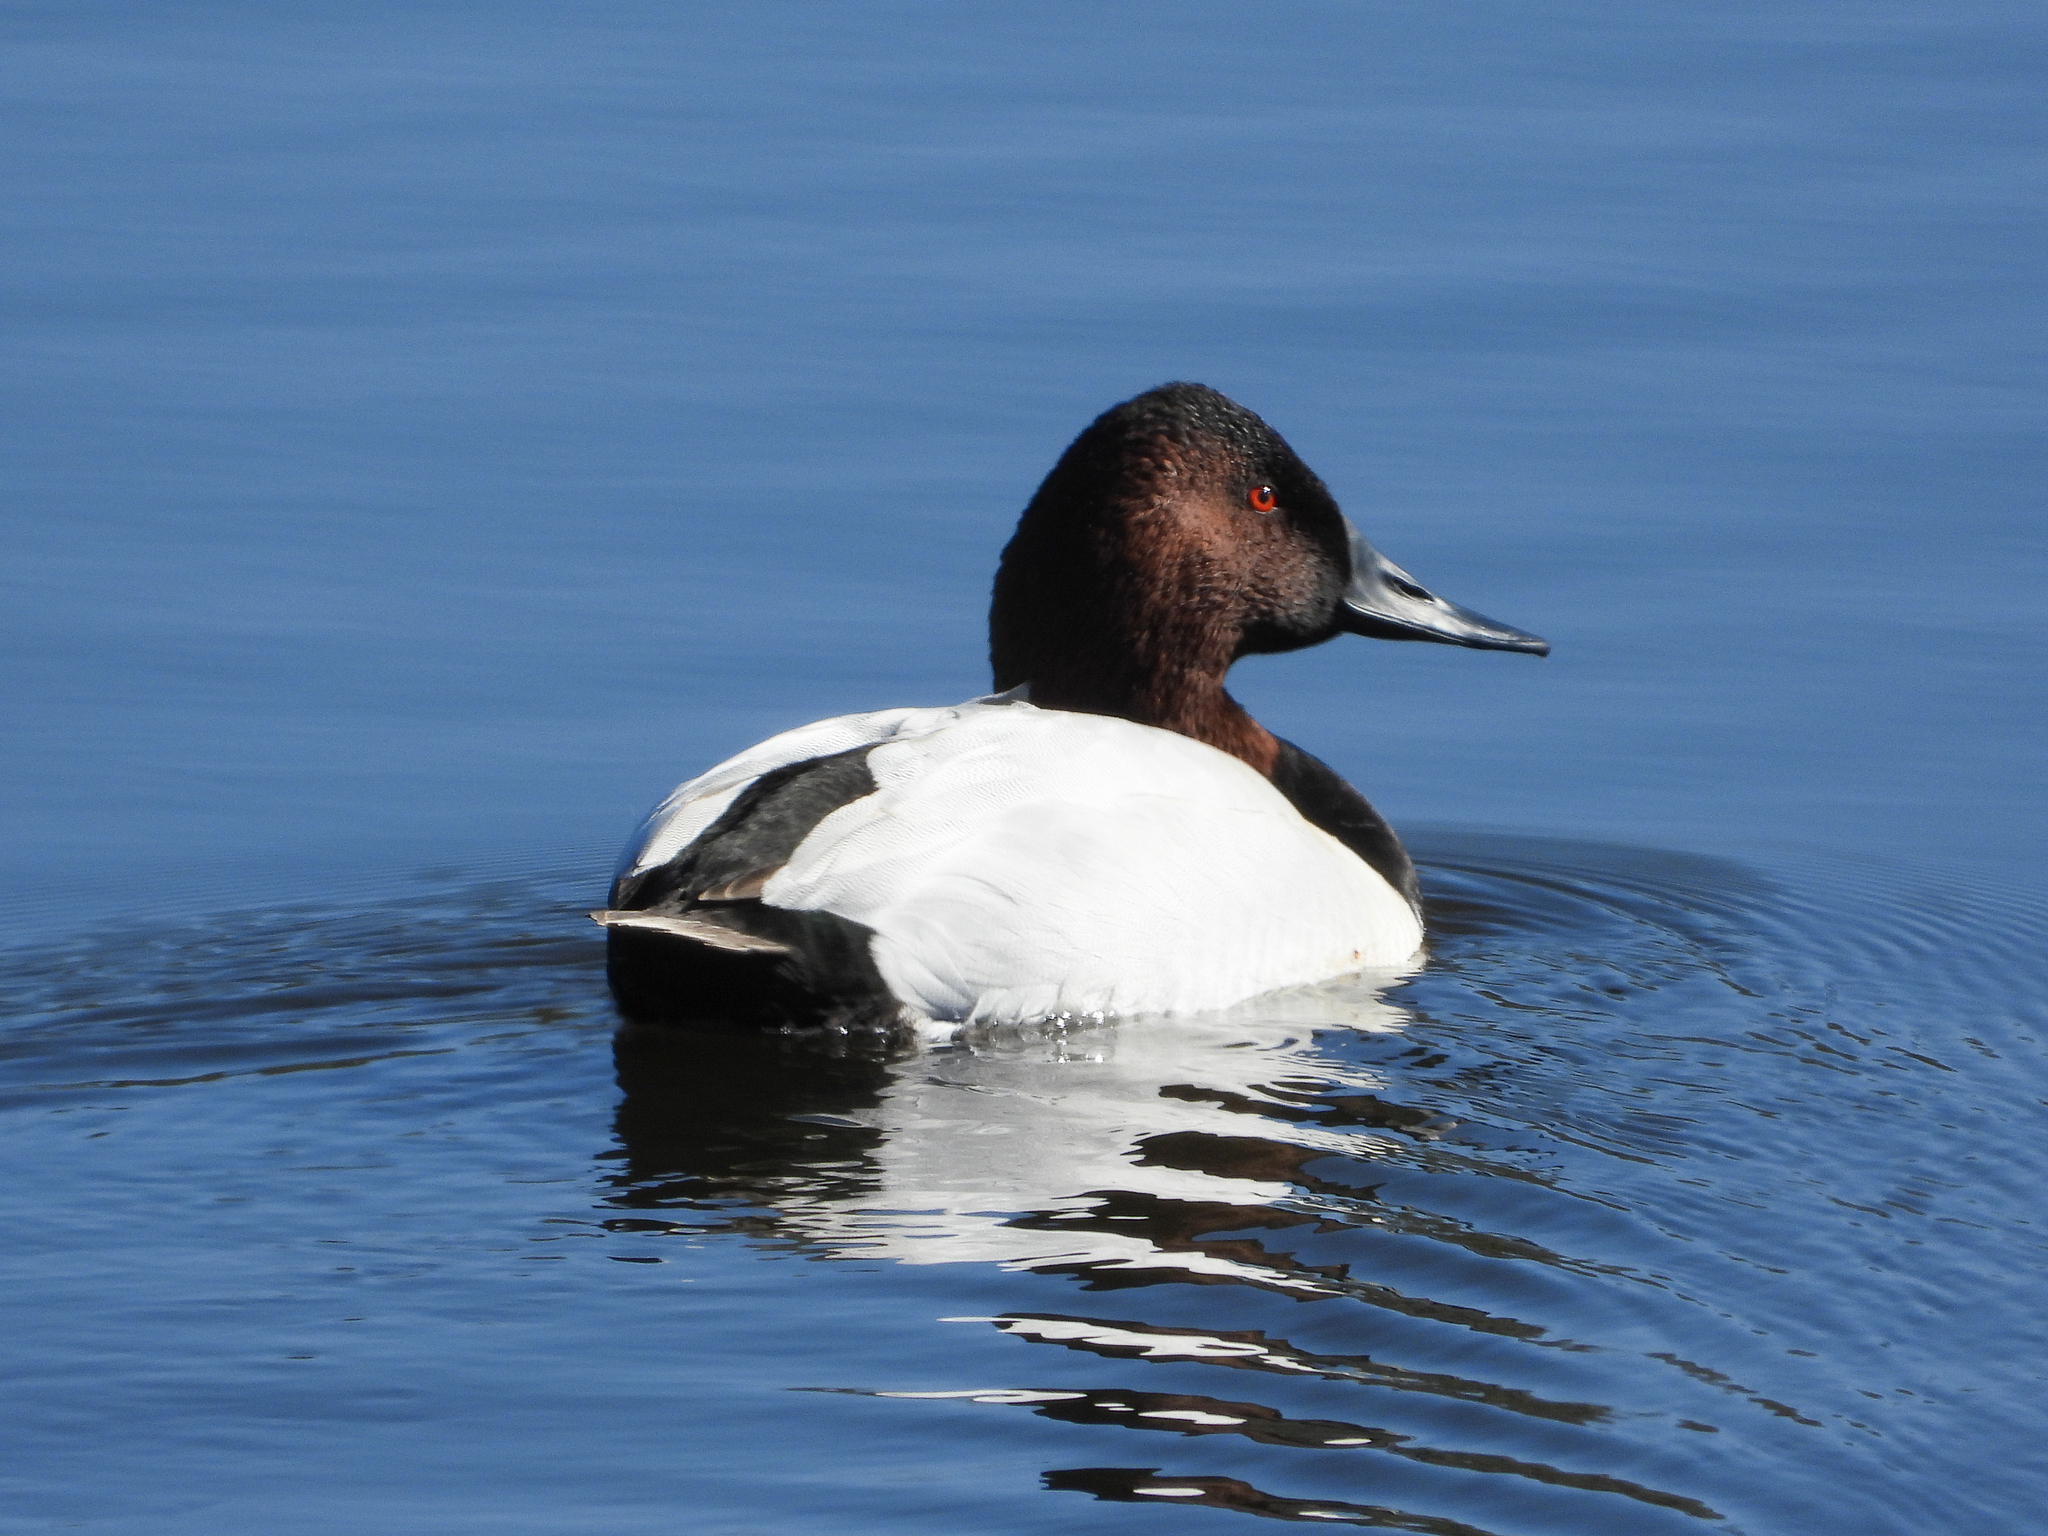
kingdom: Animalia
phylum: Chordata
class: Aves
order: Anseriformes
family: Anatidae
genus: Aythya
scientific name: Aythya valisineria
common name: Canvasback
